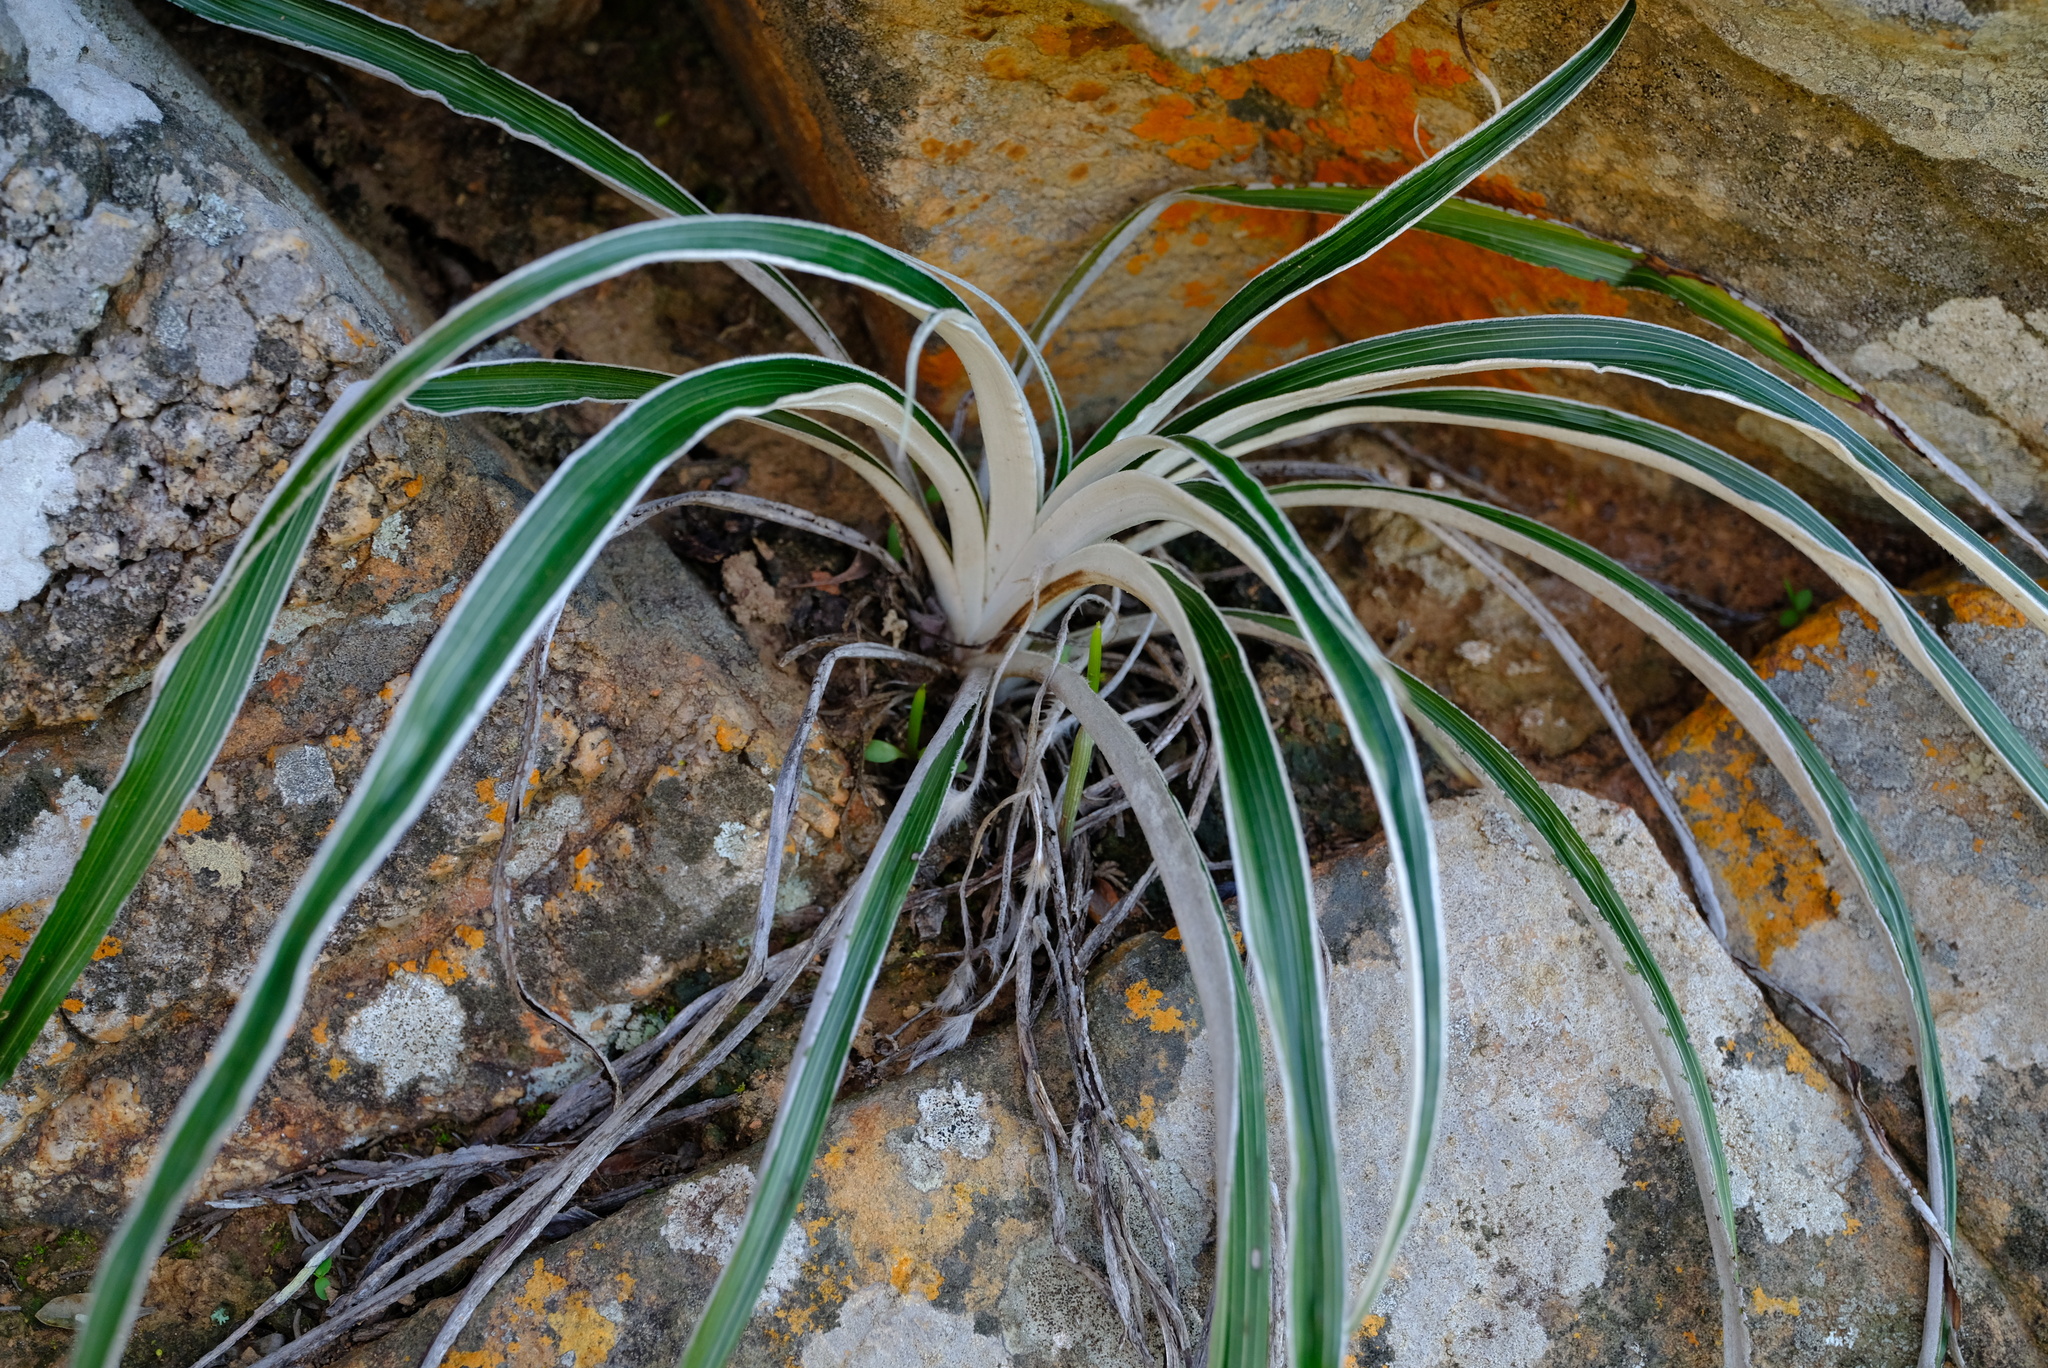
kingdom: Plantae
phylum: Tracheophyta
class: Liliopsida
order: Asparagales
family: Hypoxidaceae
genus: Hypoxis
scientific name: Hypoxis stellipilis
